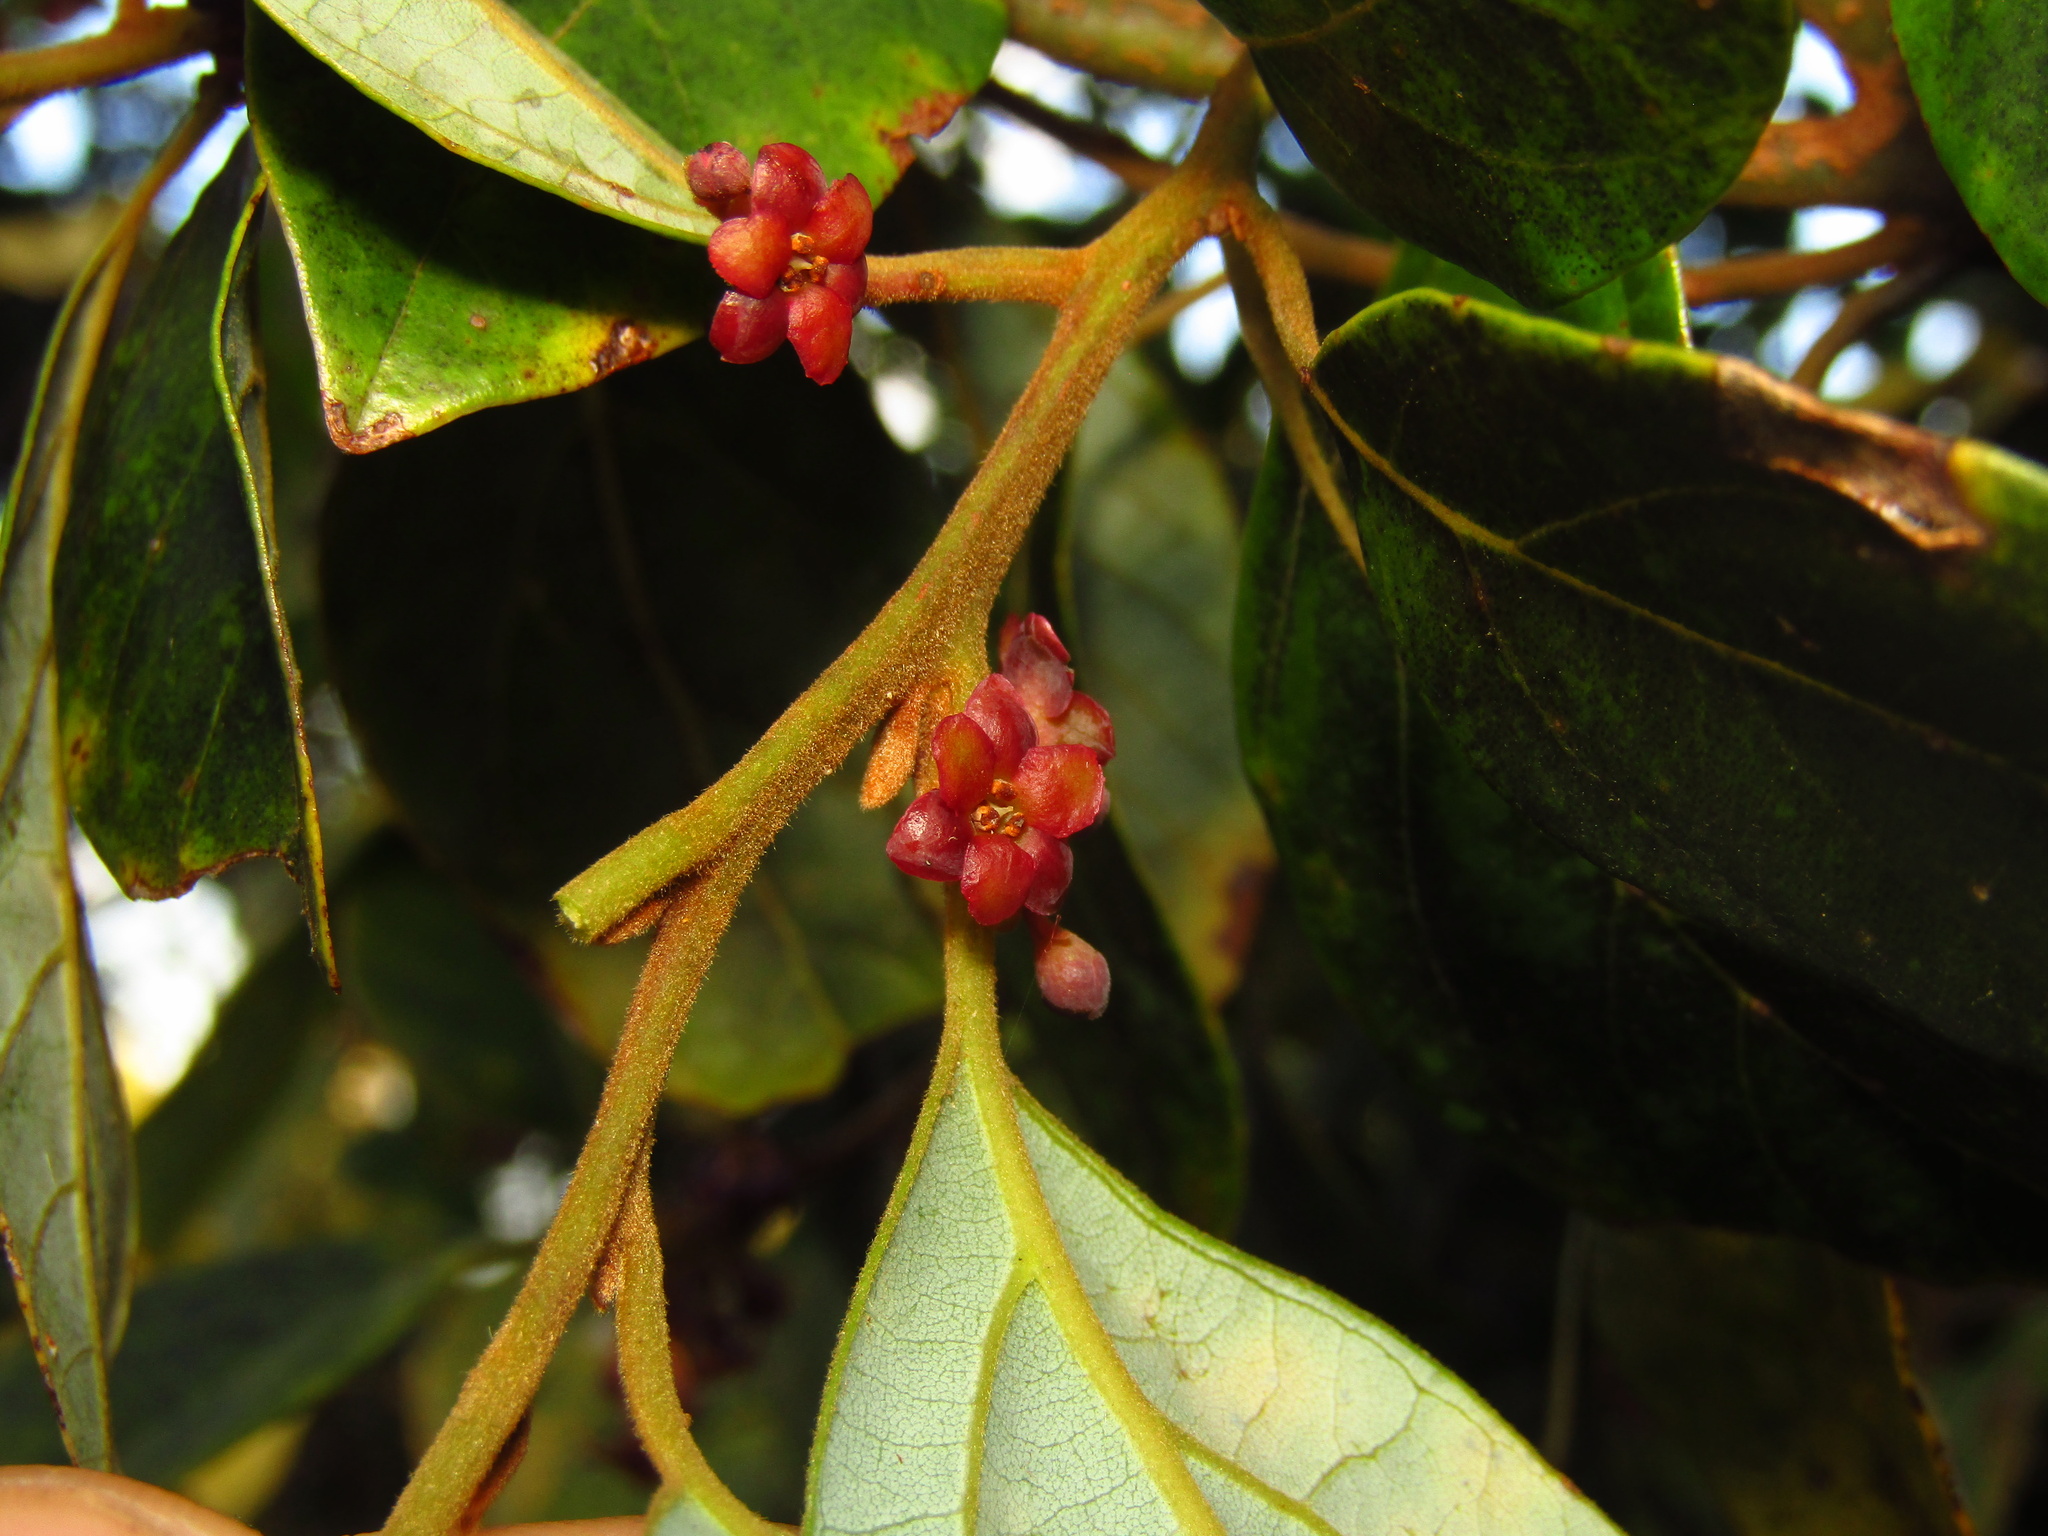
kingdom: Plantae
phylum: Tracheophyta
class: Magnoliopsida
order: Laurales
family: Lauraceae
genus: Endiandra
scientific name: Endiandra crassiflora
